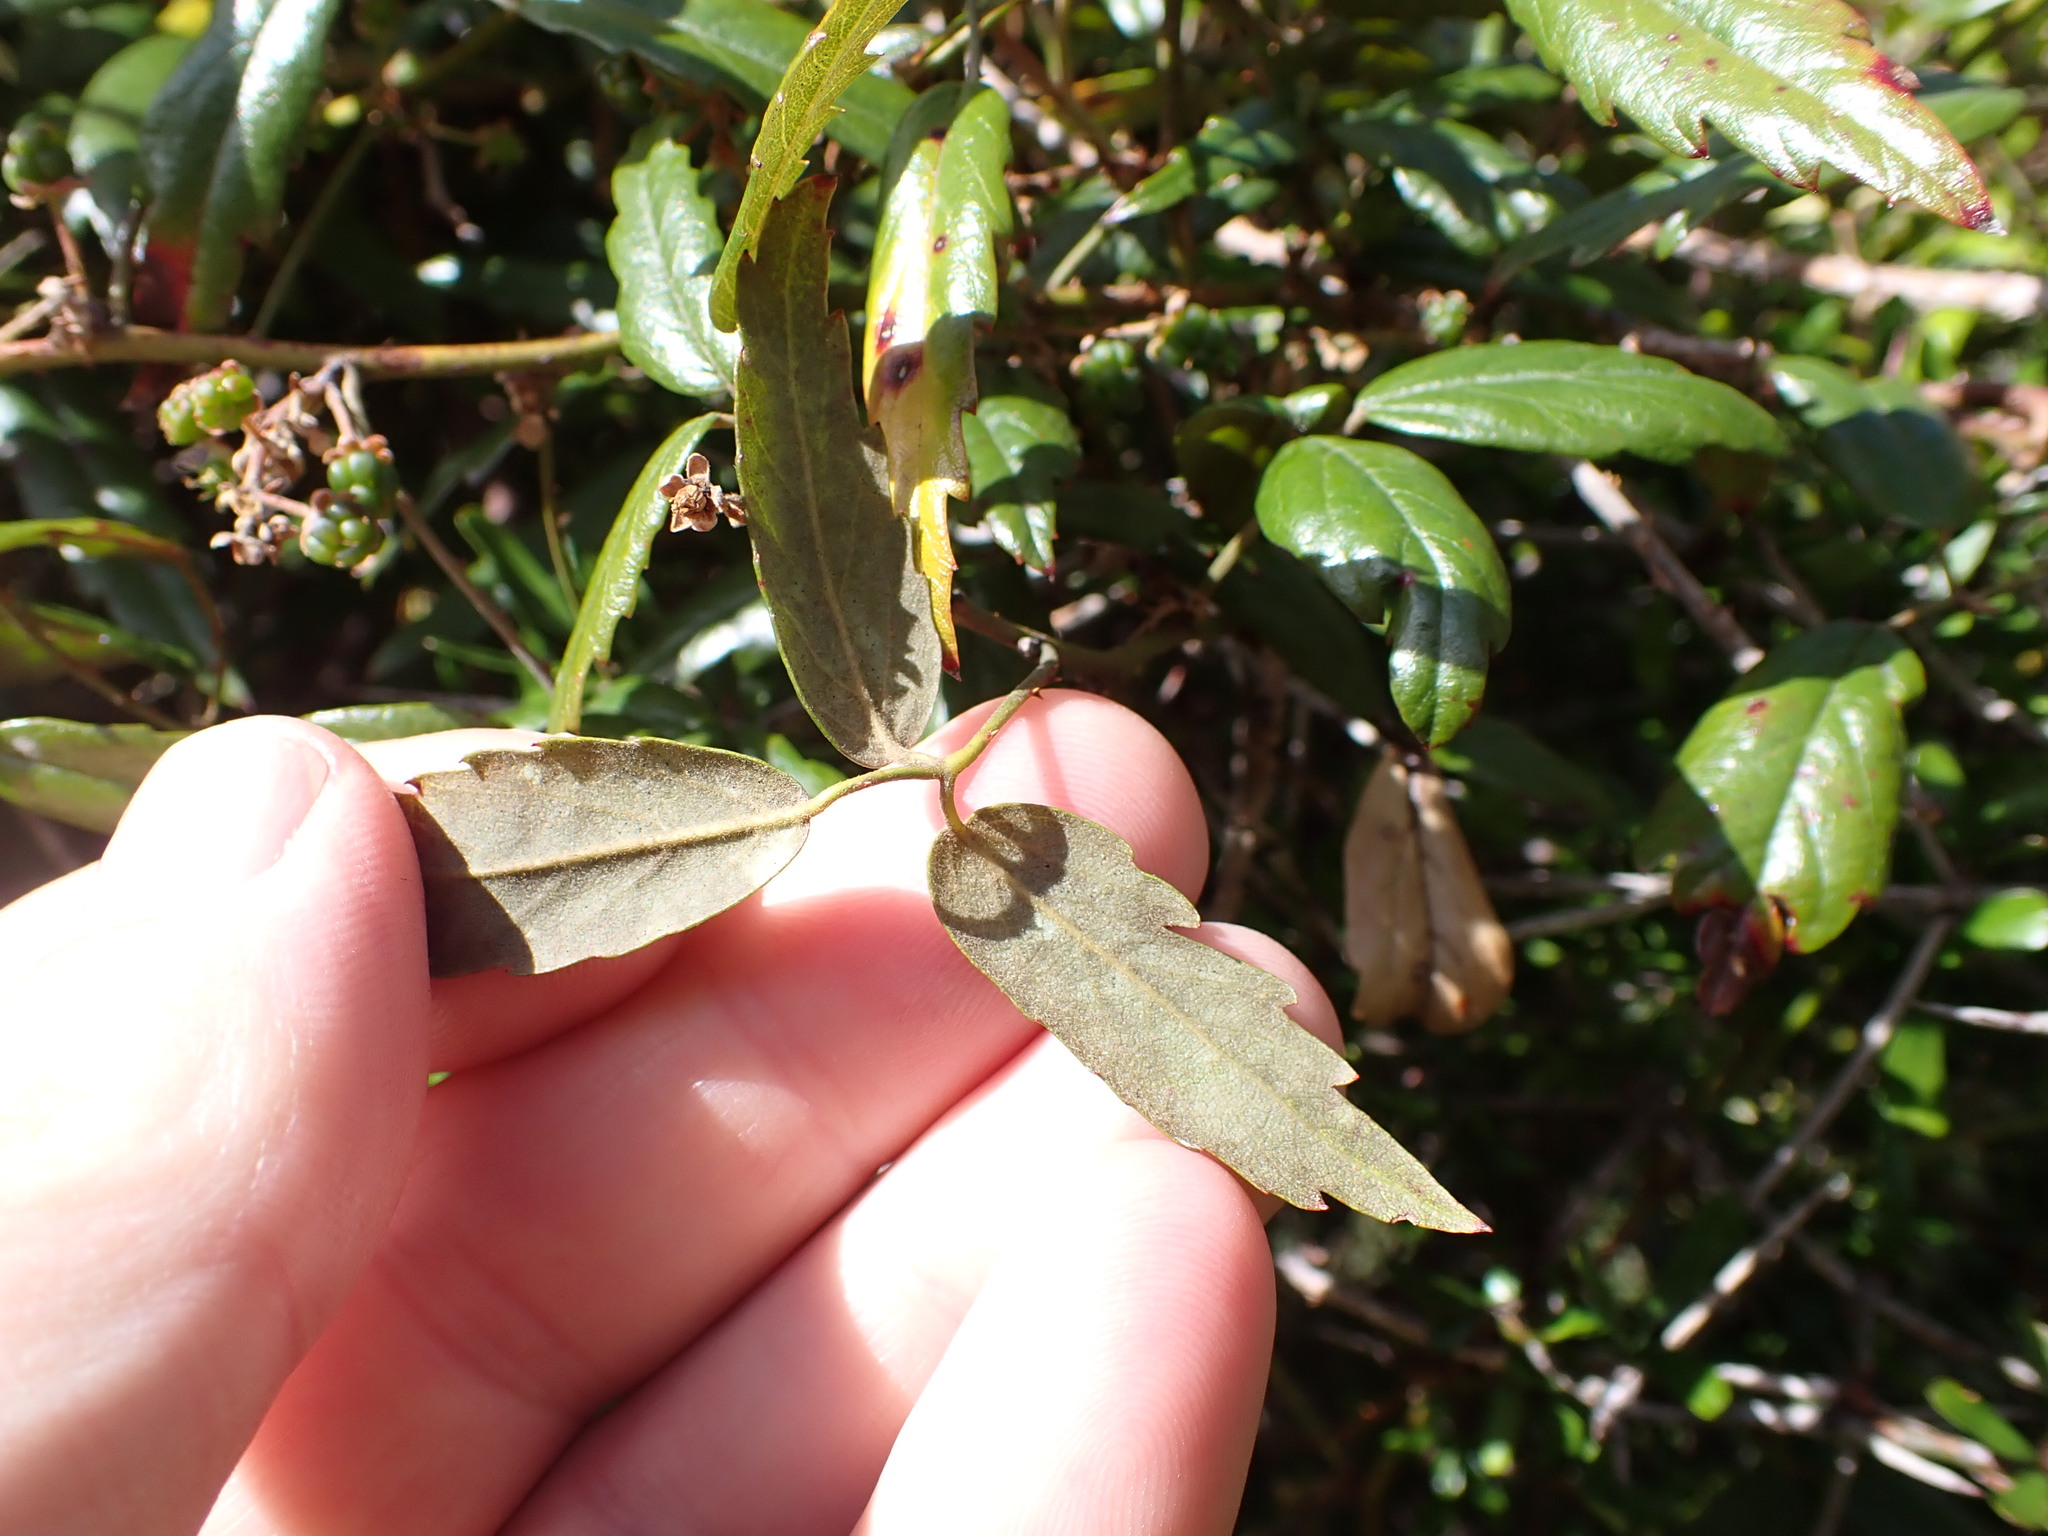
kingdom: Plantae
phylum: Tracheophyta
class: Magnoliopsida
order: Rosales
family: Rosaceae
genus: Rubus
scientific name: Rubus schmidelioides
